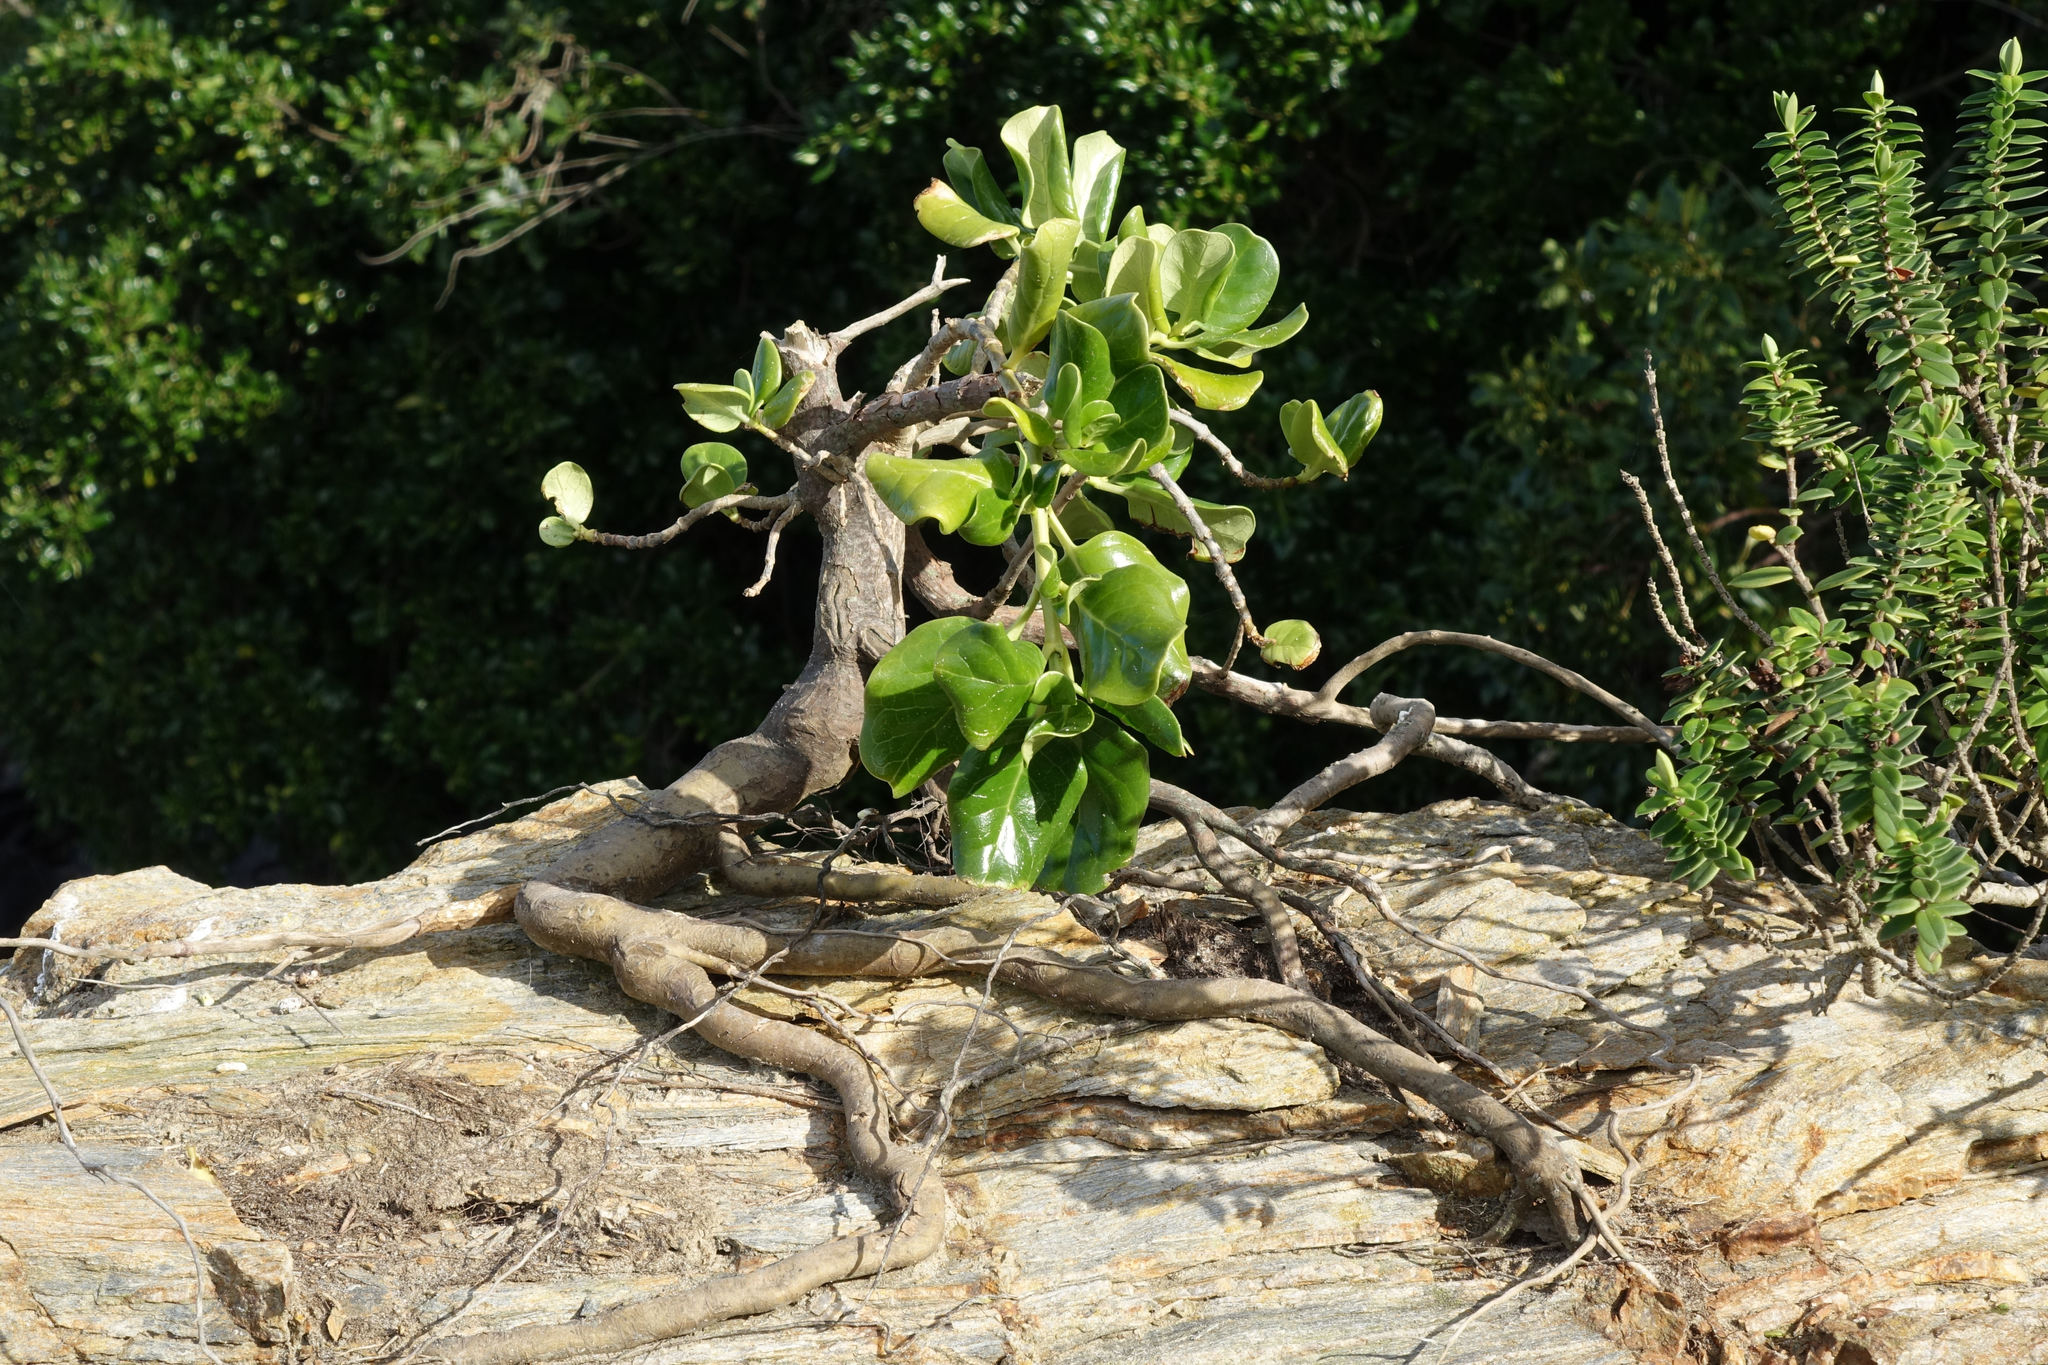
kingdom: Plantae
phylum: Tracheophyta
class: Magnoliopsida
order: Gentianales
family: Rubiaceae
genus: Coprosma
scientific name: Coprosma repens
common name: Tree bedstraw
